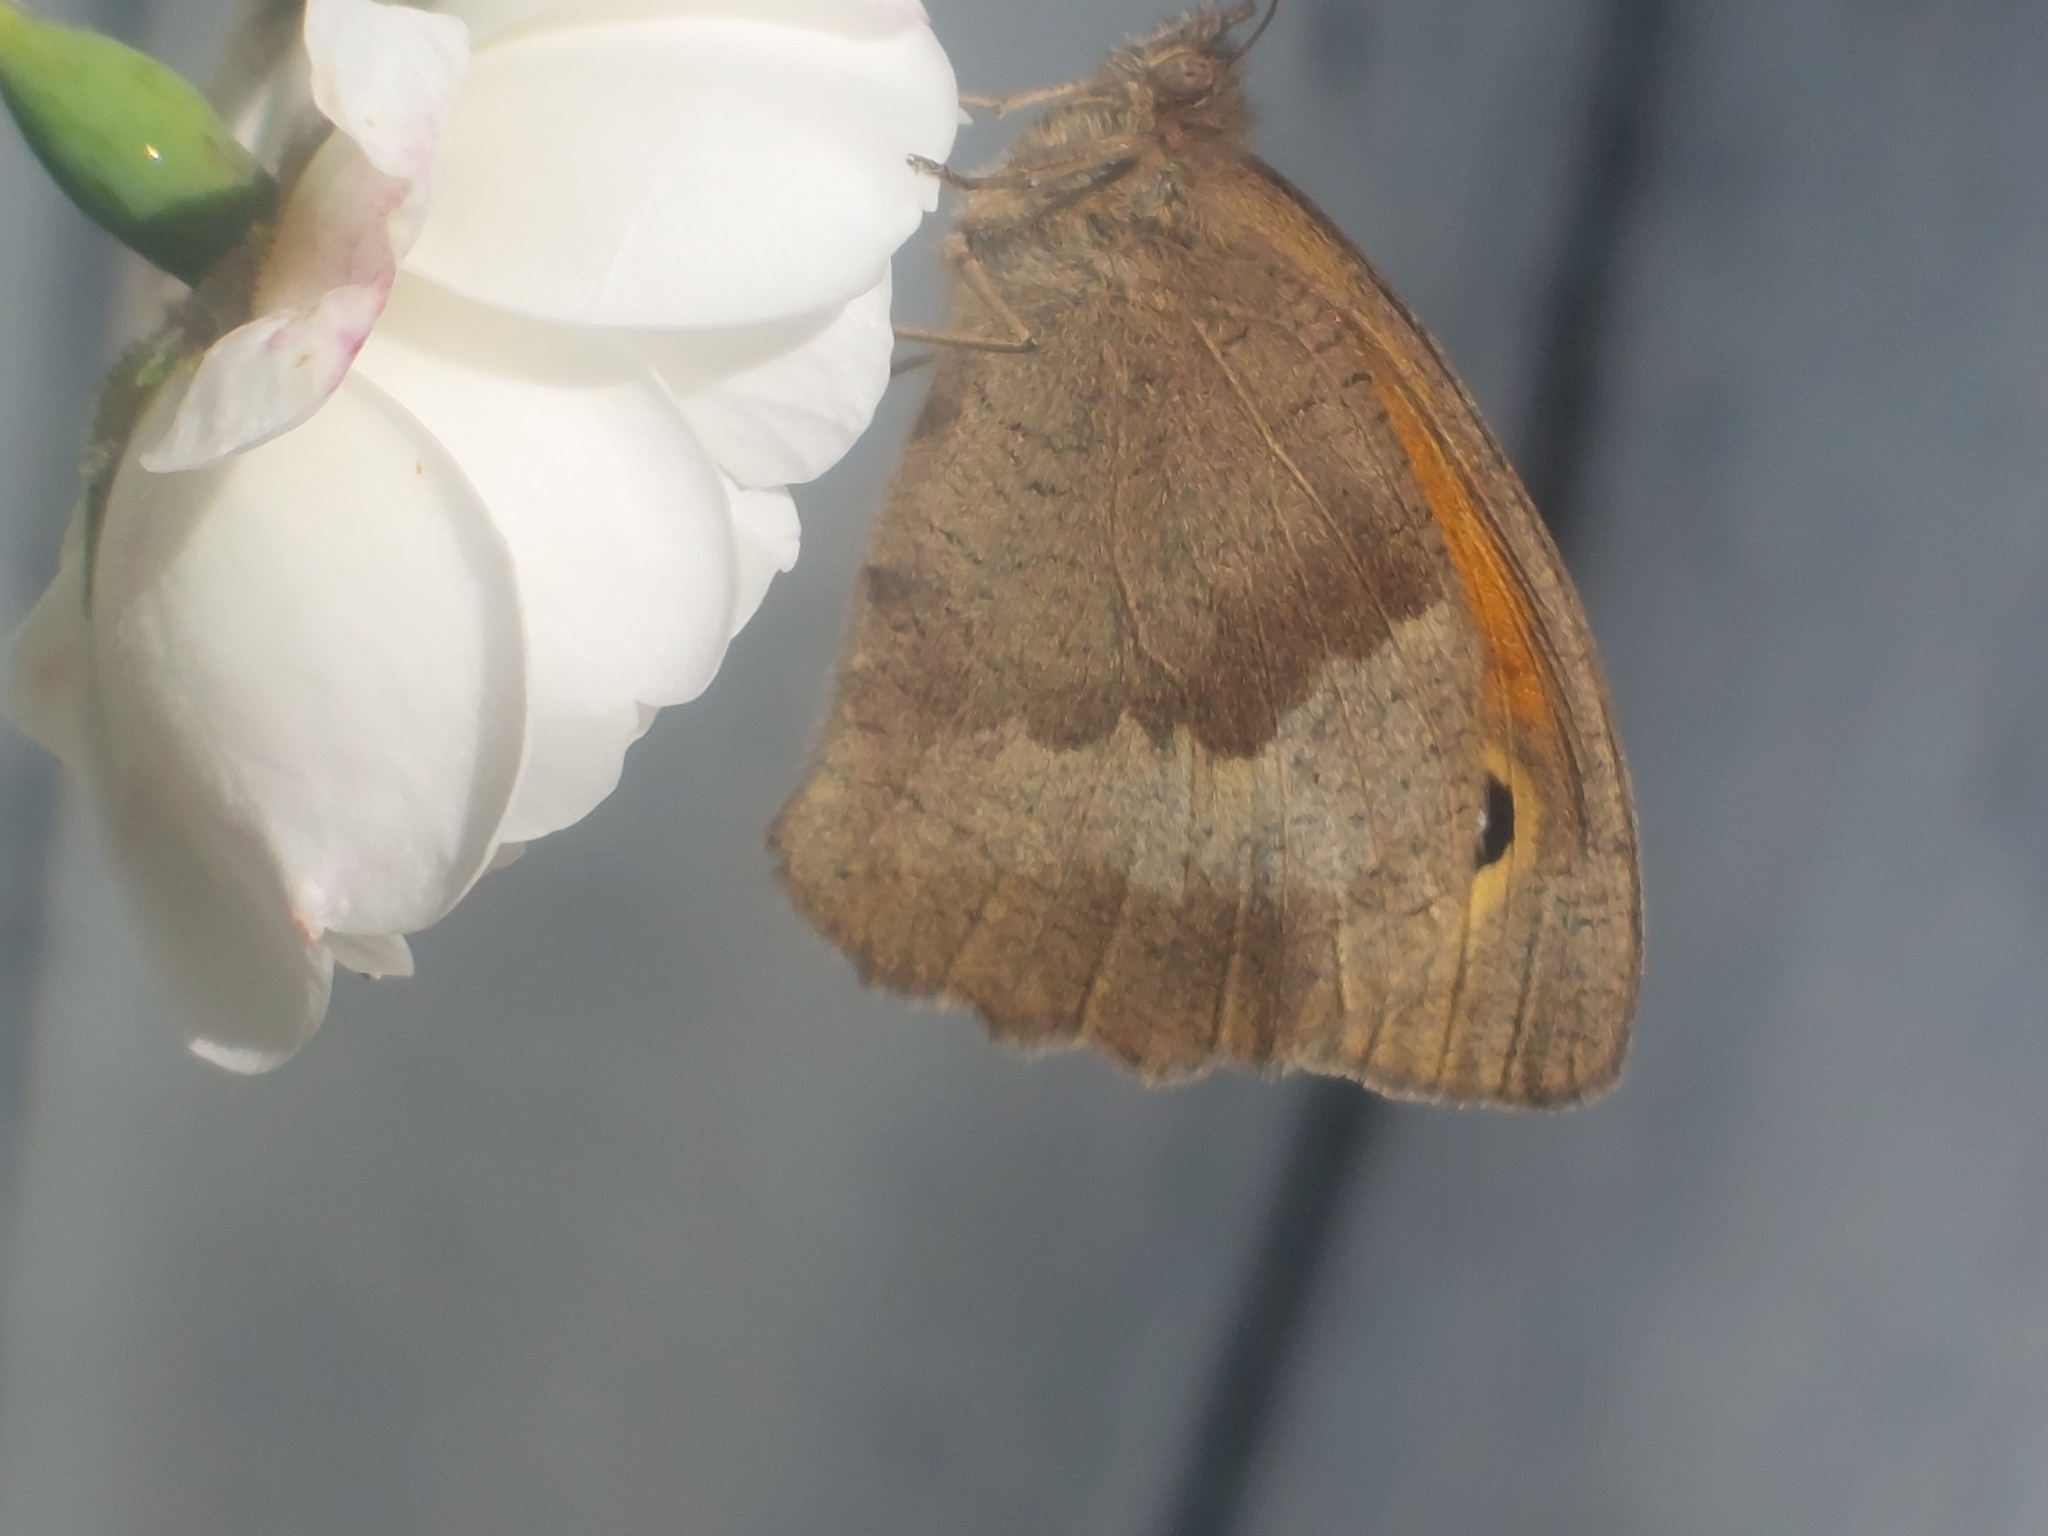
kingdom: Animalia
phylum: Arthropoda
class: Insecta
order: Lepidoptera
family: Nymphalidae
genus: Maniola
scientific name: Maniola jurtina
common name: Meadow brown
